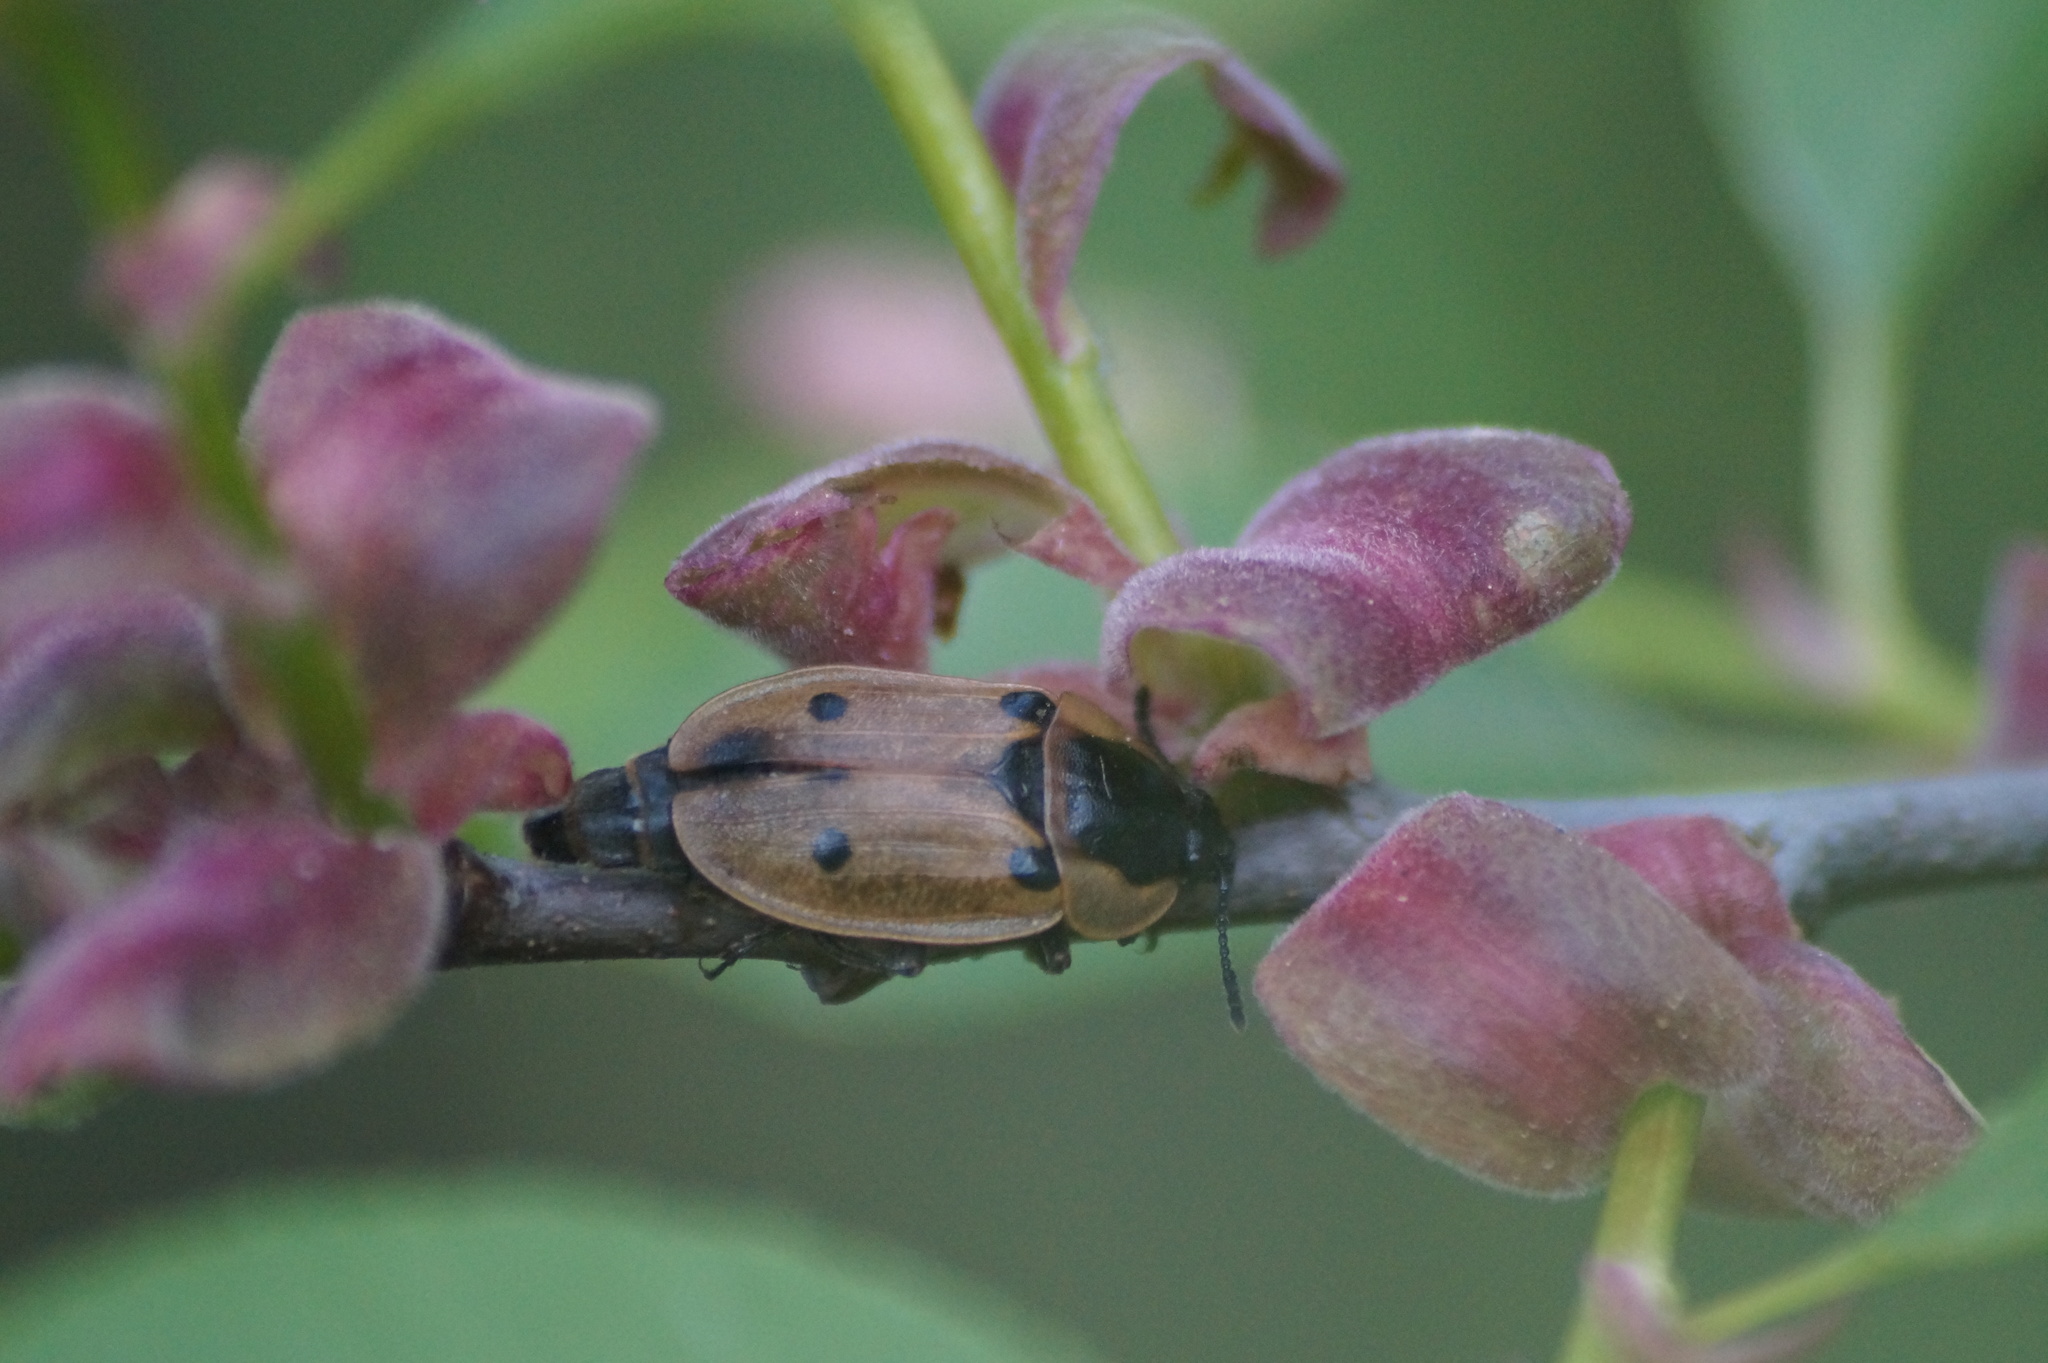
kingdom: Animalia
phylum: Arthropoda
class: Insecta
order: Coleoptera
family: Staphylinidae
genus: Dendroxena
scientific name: Dendroxena quadrimaculata
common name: Carrion beetle
